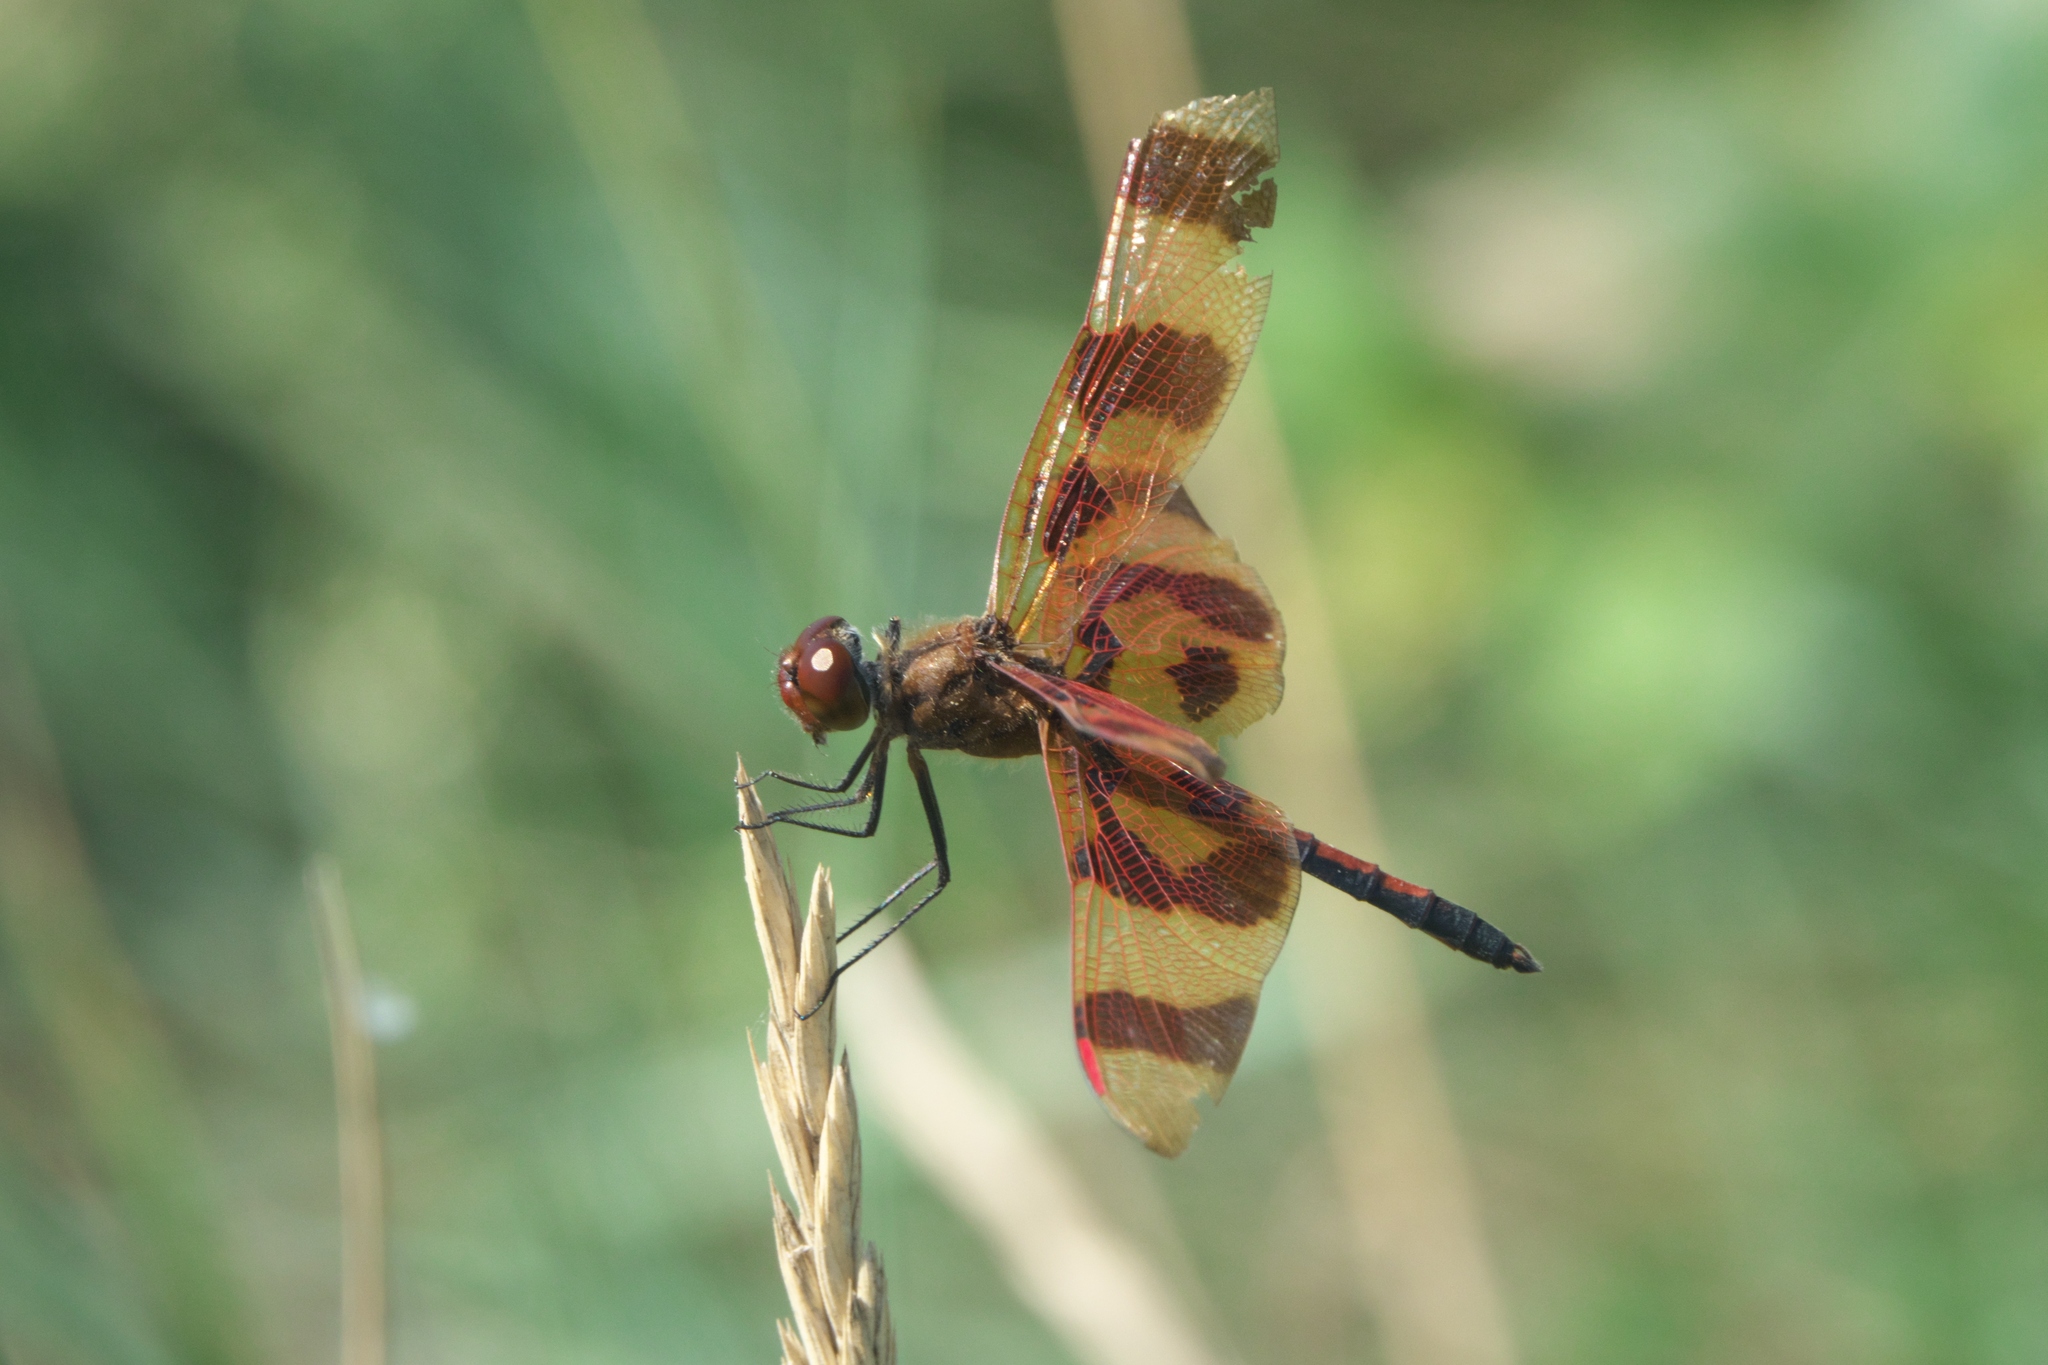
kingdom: Animalia
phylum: Arthropoda
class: Insecta
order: Odonata
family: Libellulidae
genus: Celithemis
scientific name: Celithemis eponina
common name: Halloween pennant
